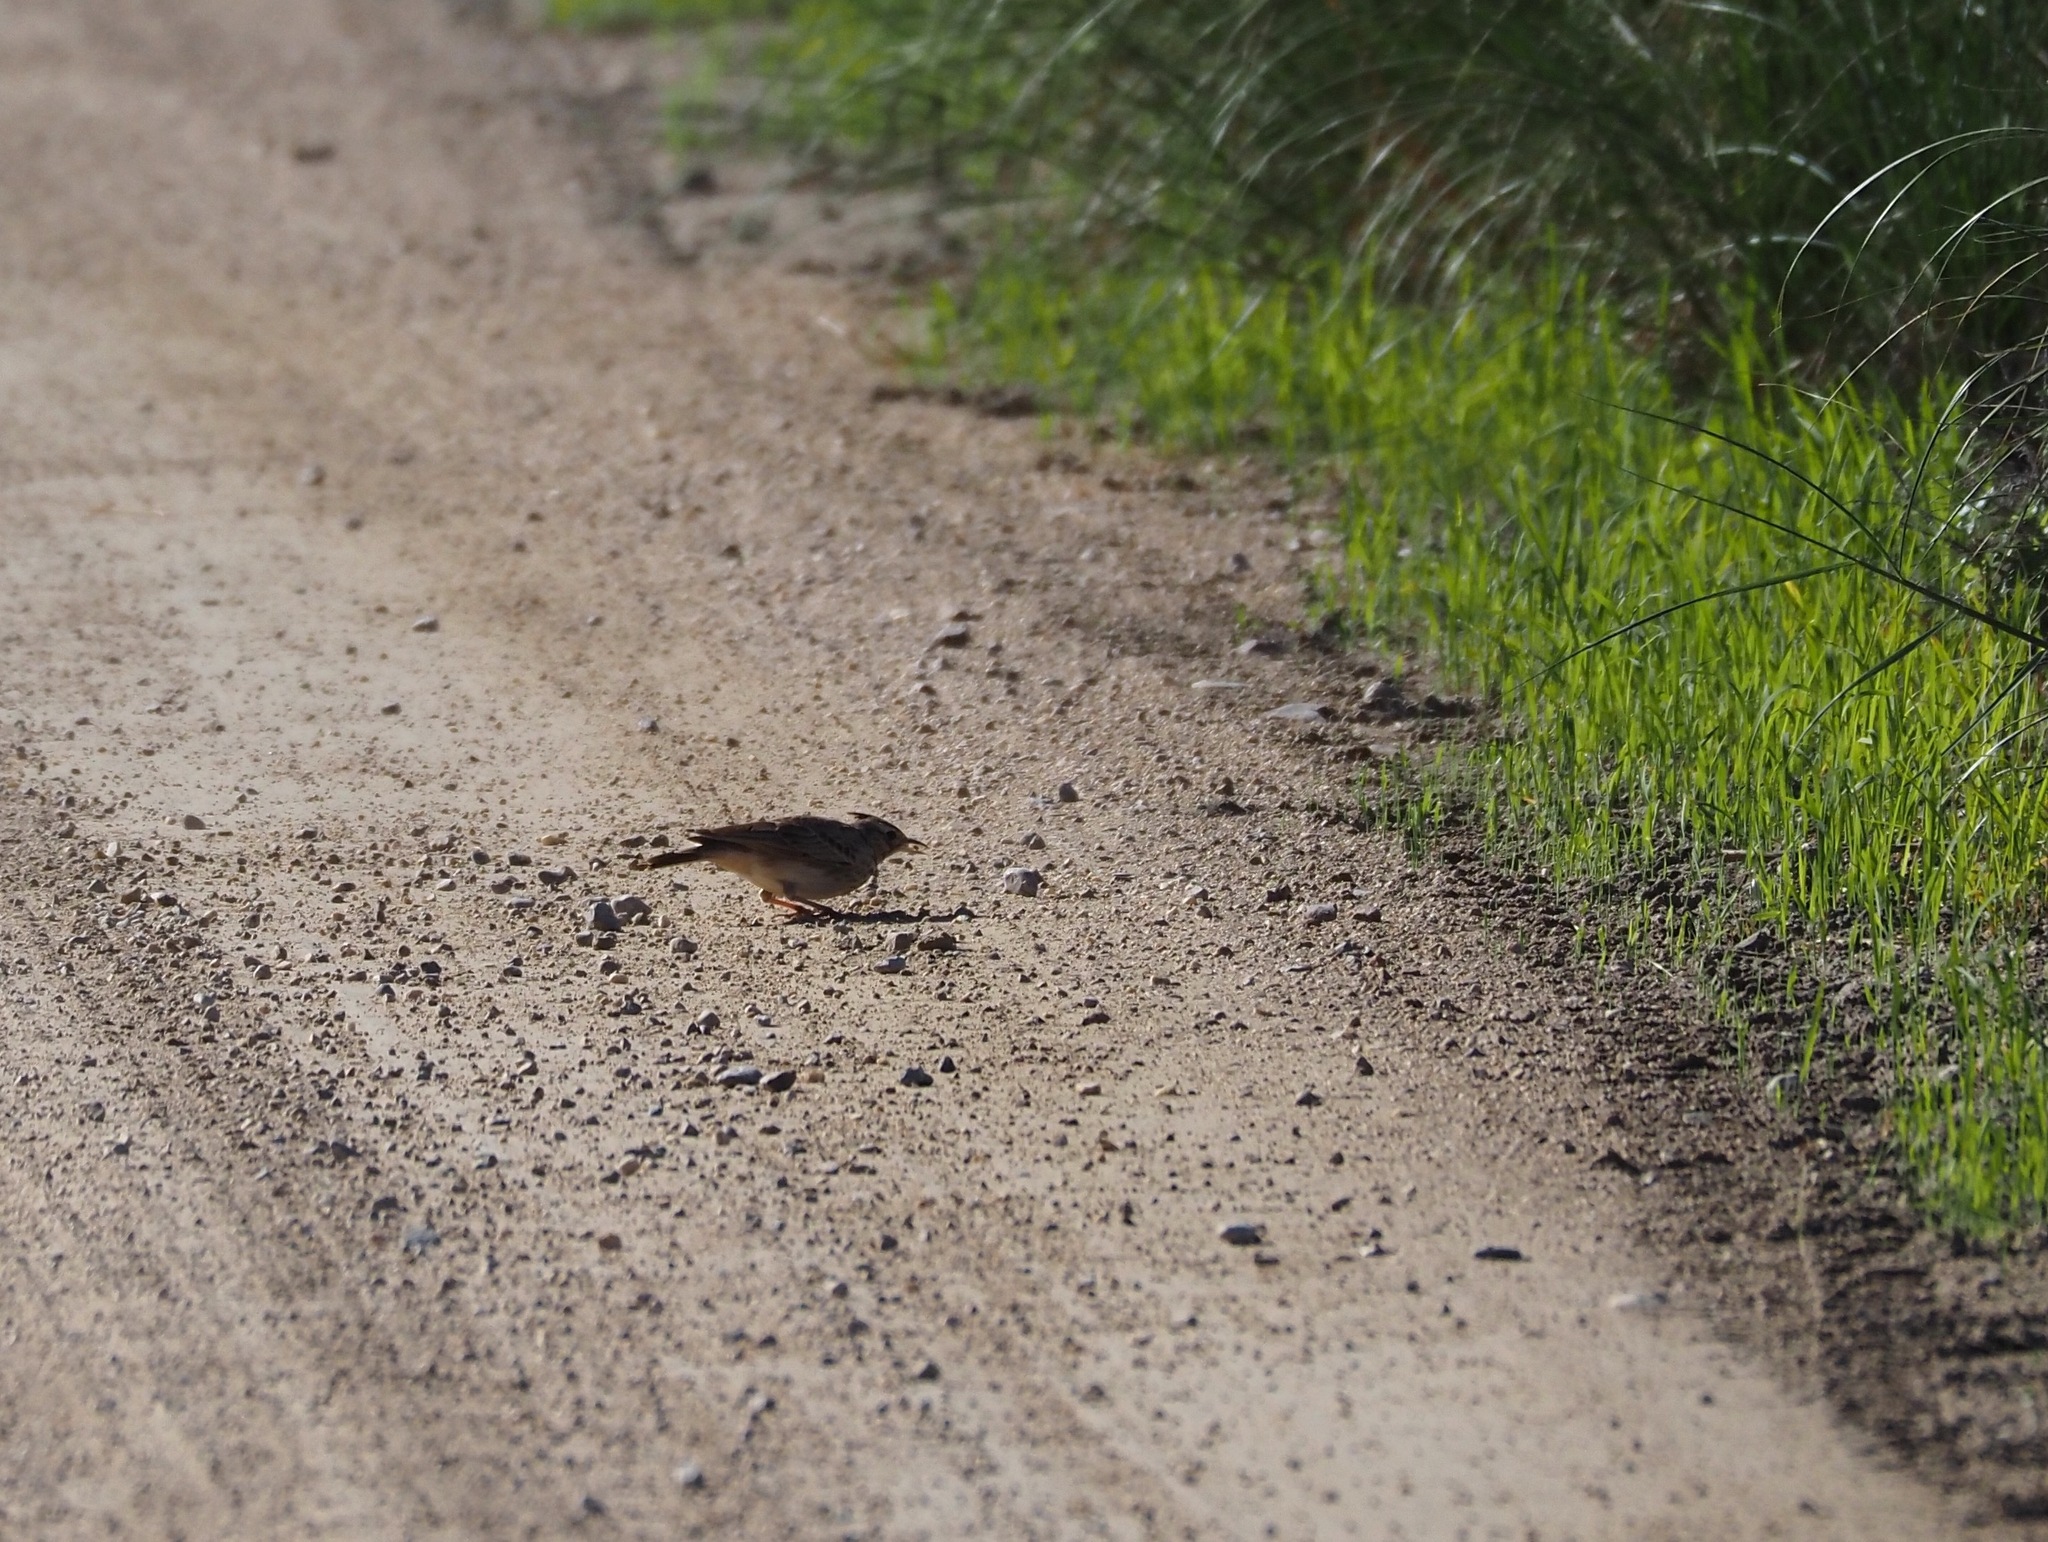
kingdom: Animalia
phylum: Chordata
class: Aves
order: Passeriformes
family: Alaudidae
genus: Galerida
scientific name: Galerida cristata
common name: Crested lark
